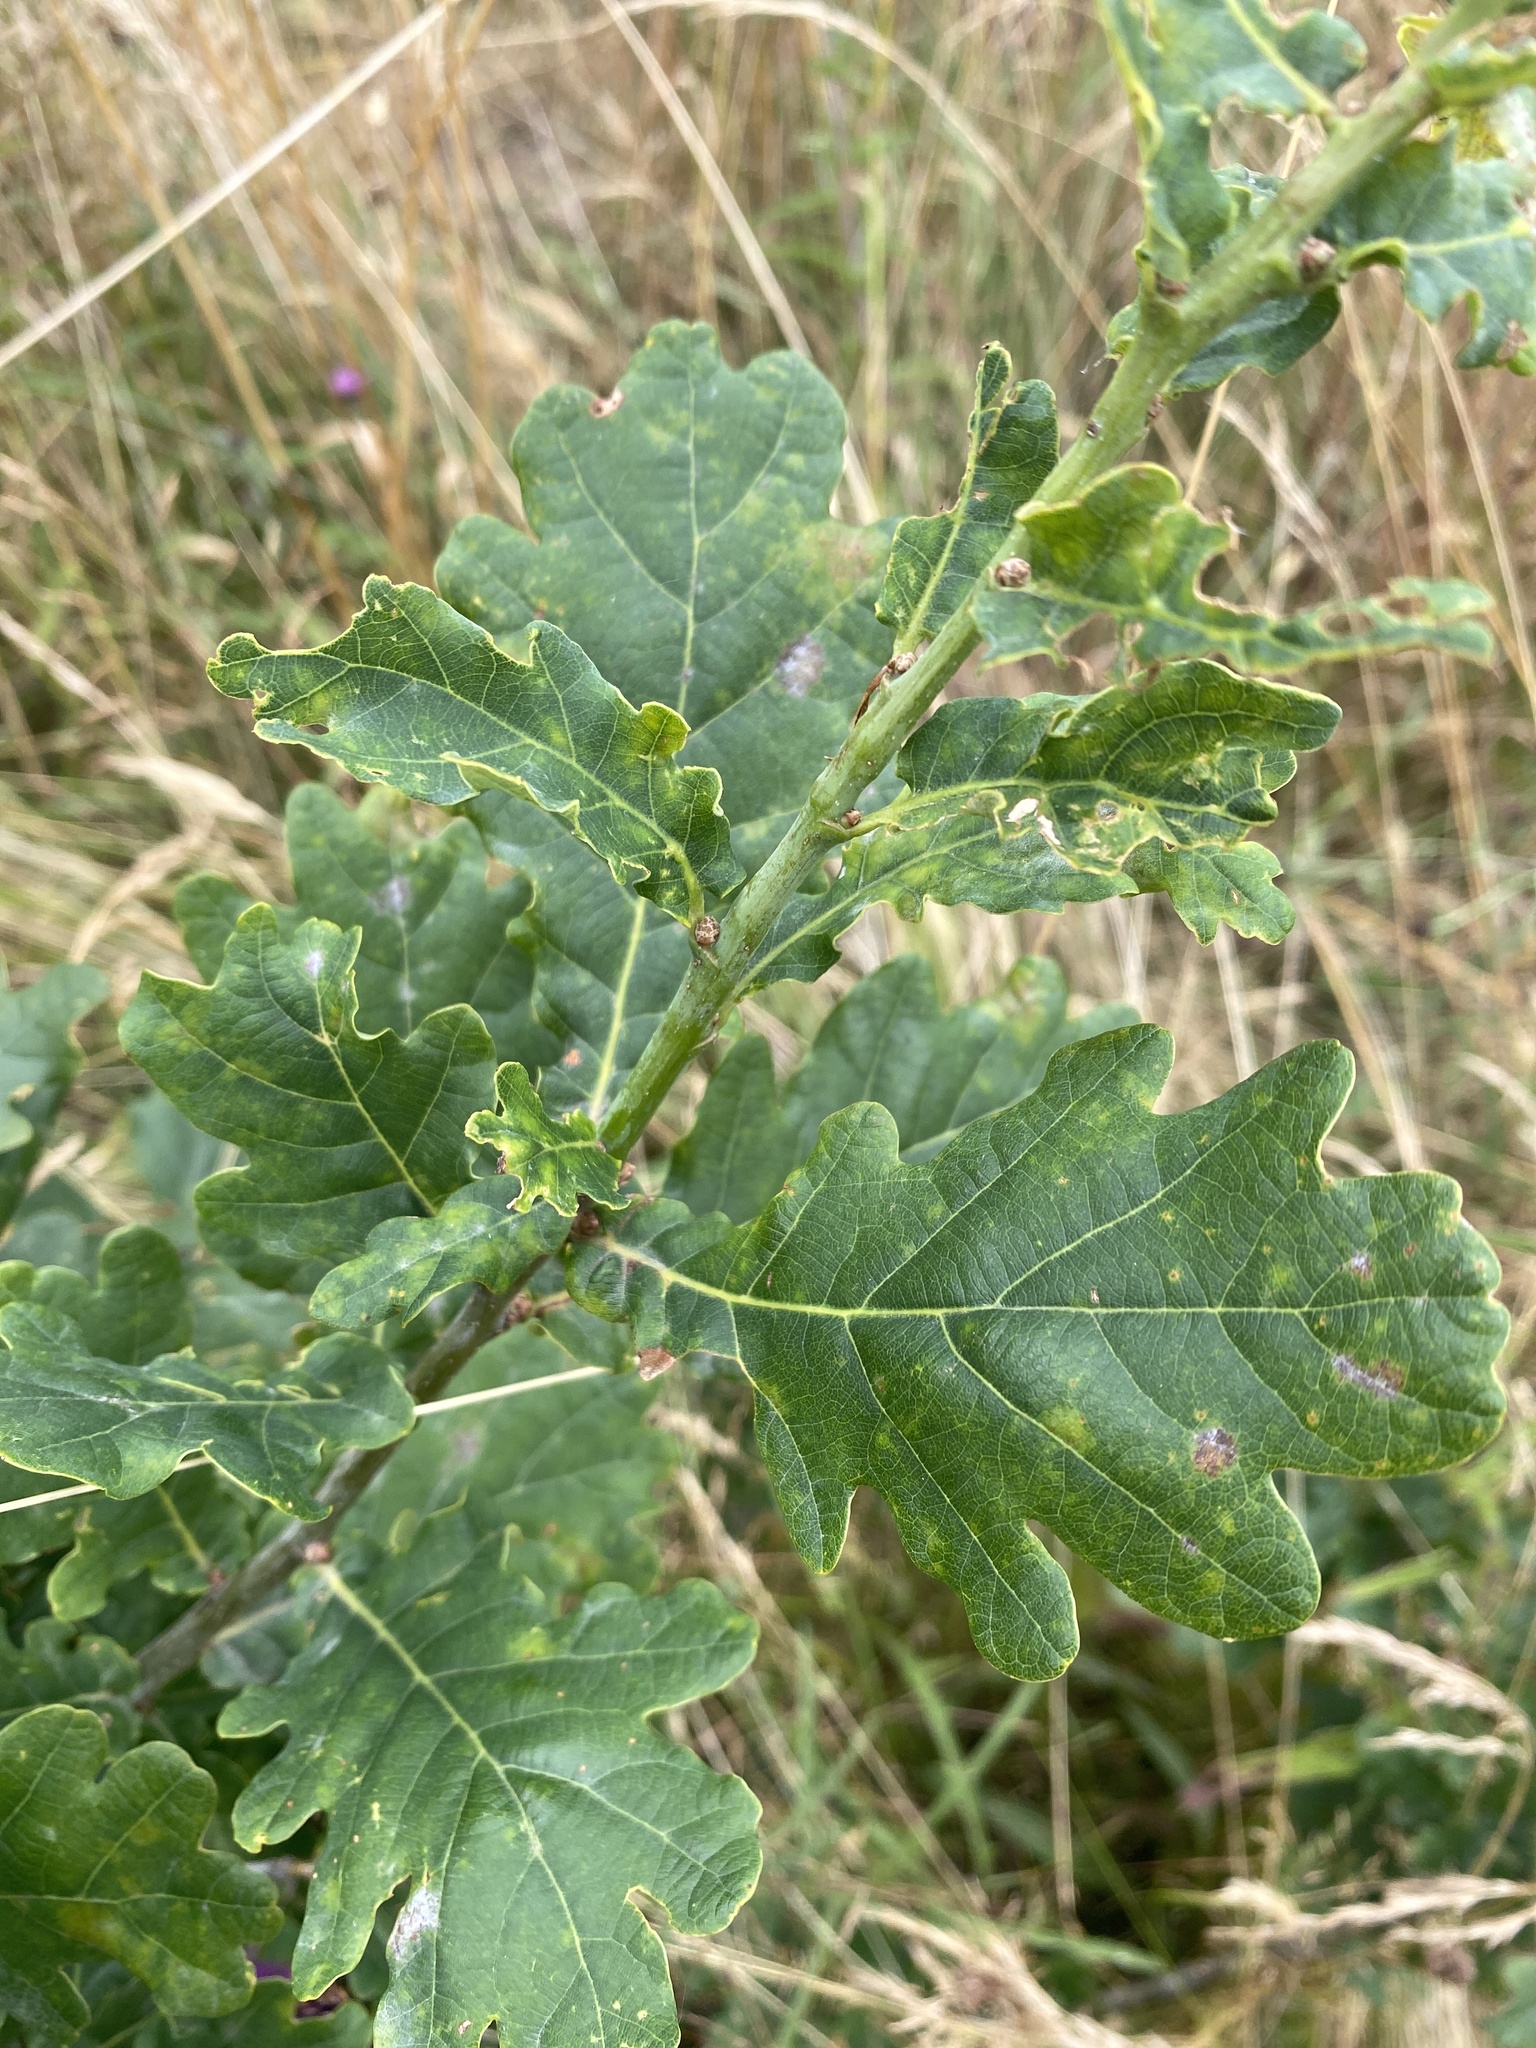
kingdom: Plantae
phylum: Tracheophyta
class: Magnoliopsida
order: Fagales
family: Fagaceae
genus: Quercus
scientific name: Quercus robur
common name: Pedunculate oak
